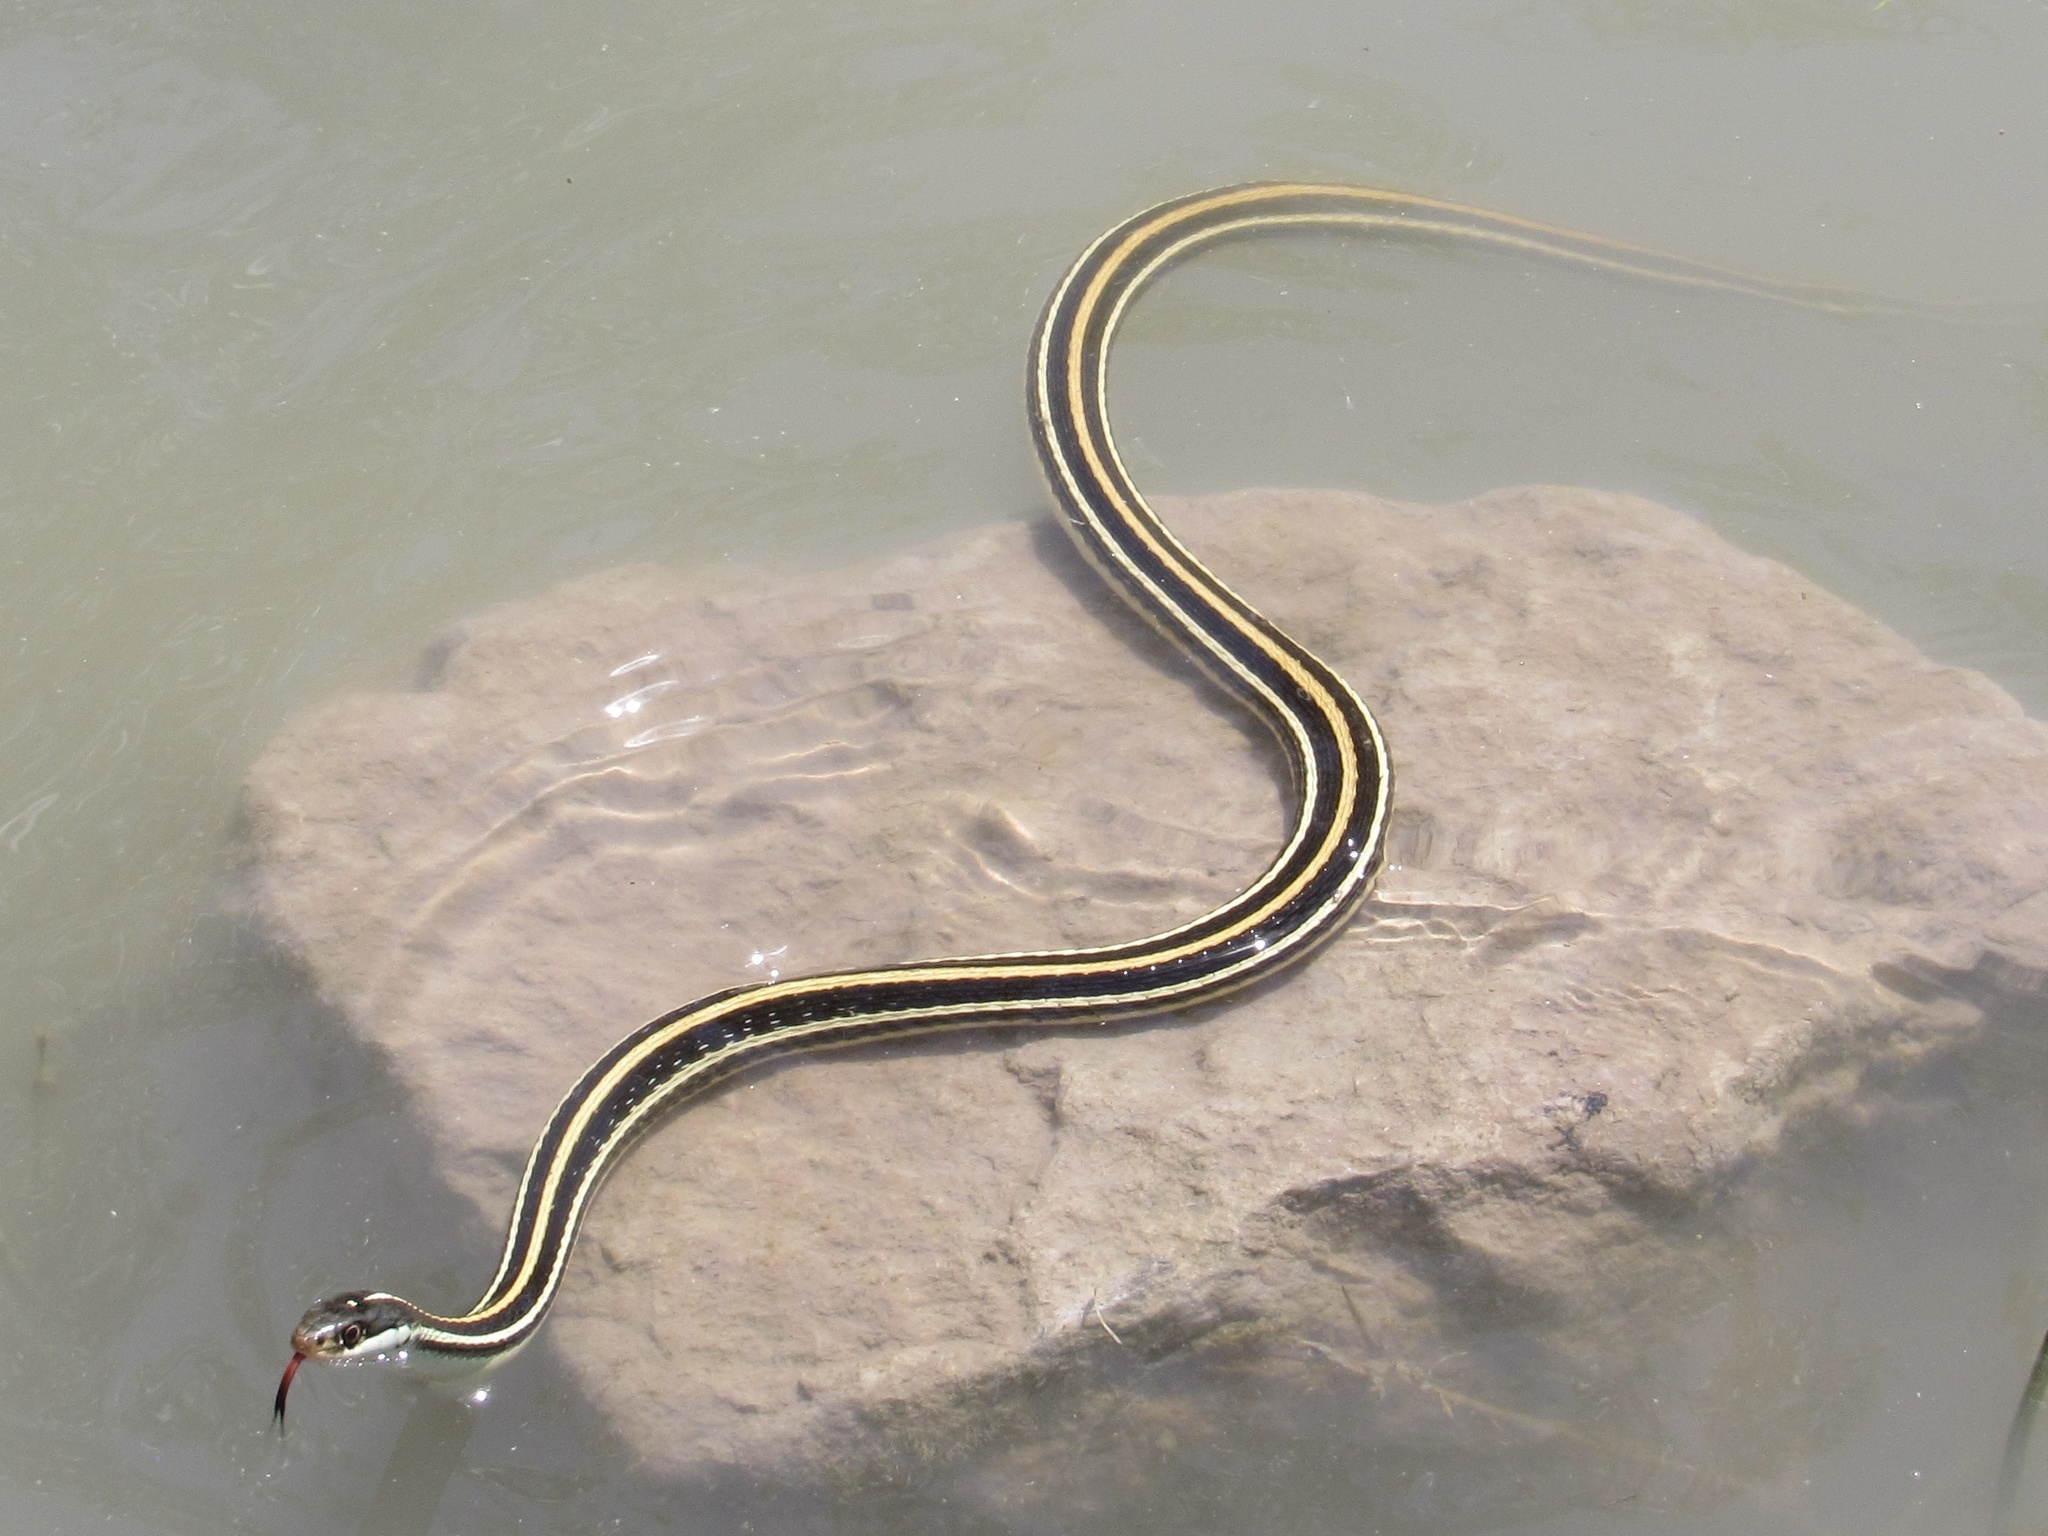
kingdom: Animalia
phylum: Chordata
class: Squamata
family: Colubridae
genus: Thamnophis
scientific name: Thamnophis proximus
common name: Western ribbon snake
